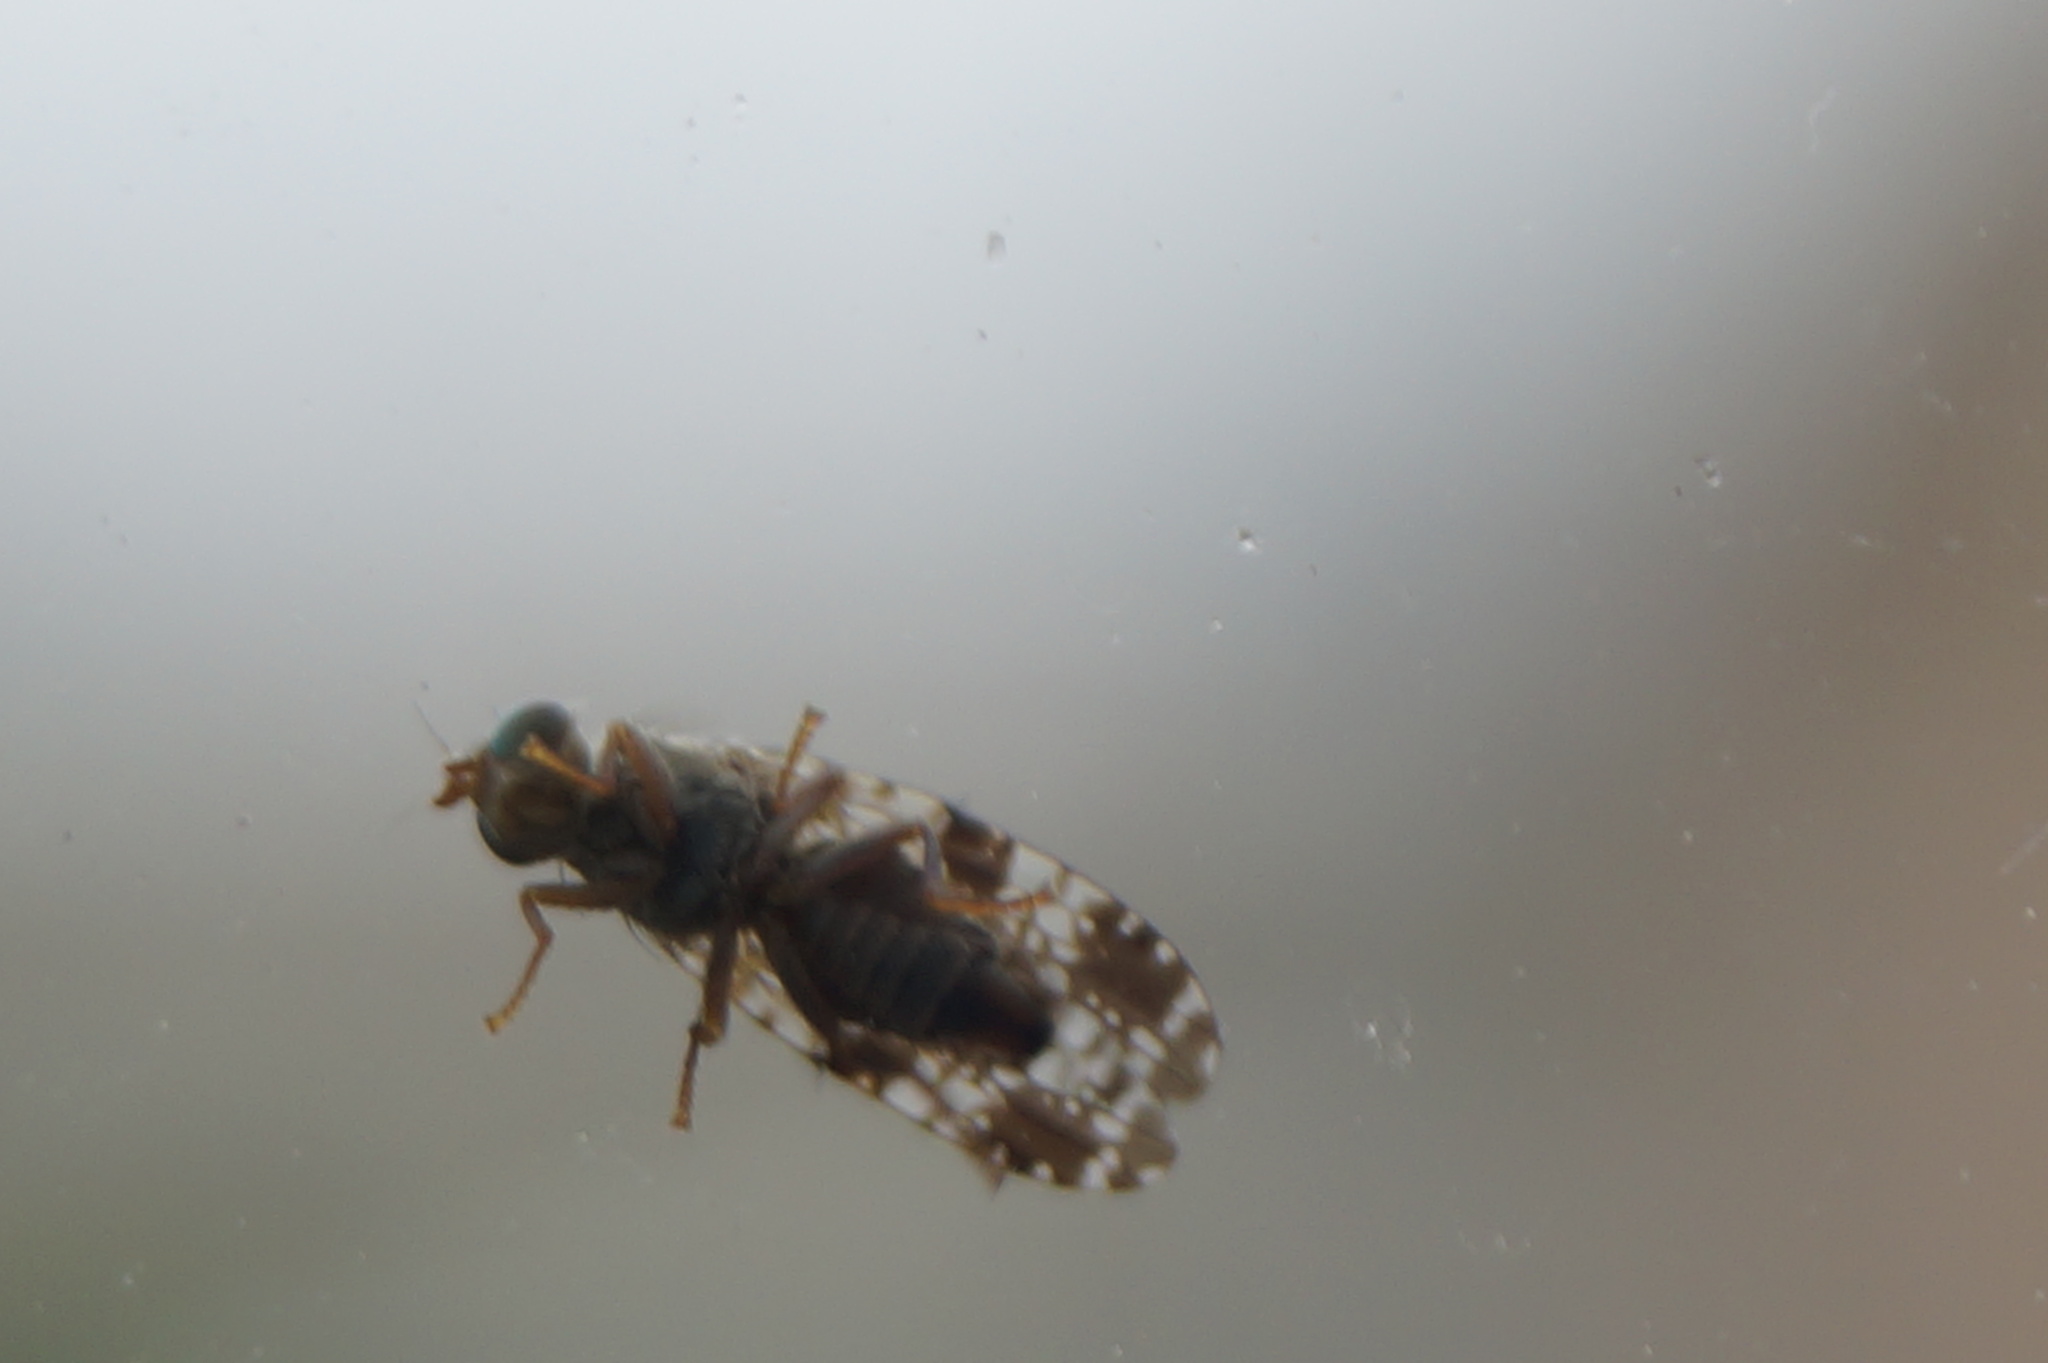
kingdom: Animalia
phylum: Arthropoda
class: Insecta
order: Diptera
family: Tephritidae
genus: Tephritis
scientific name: Tephritis vespertina
